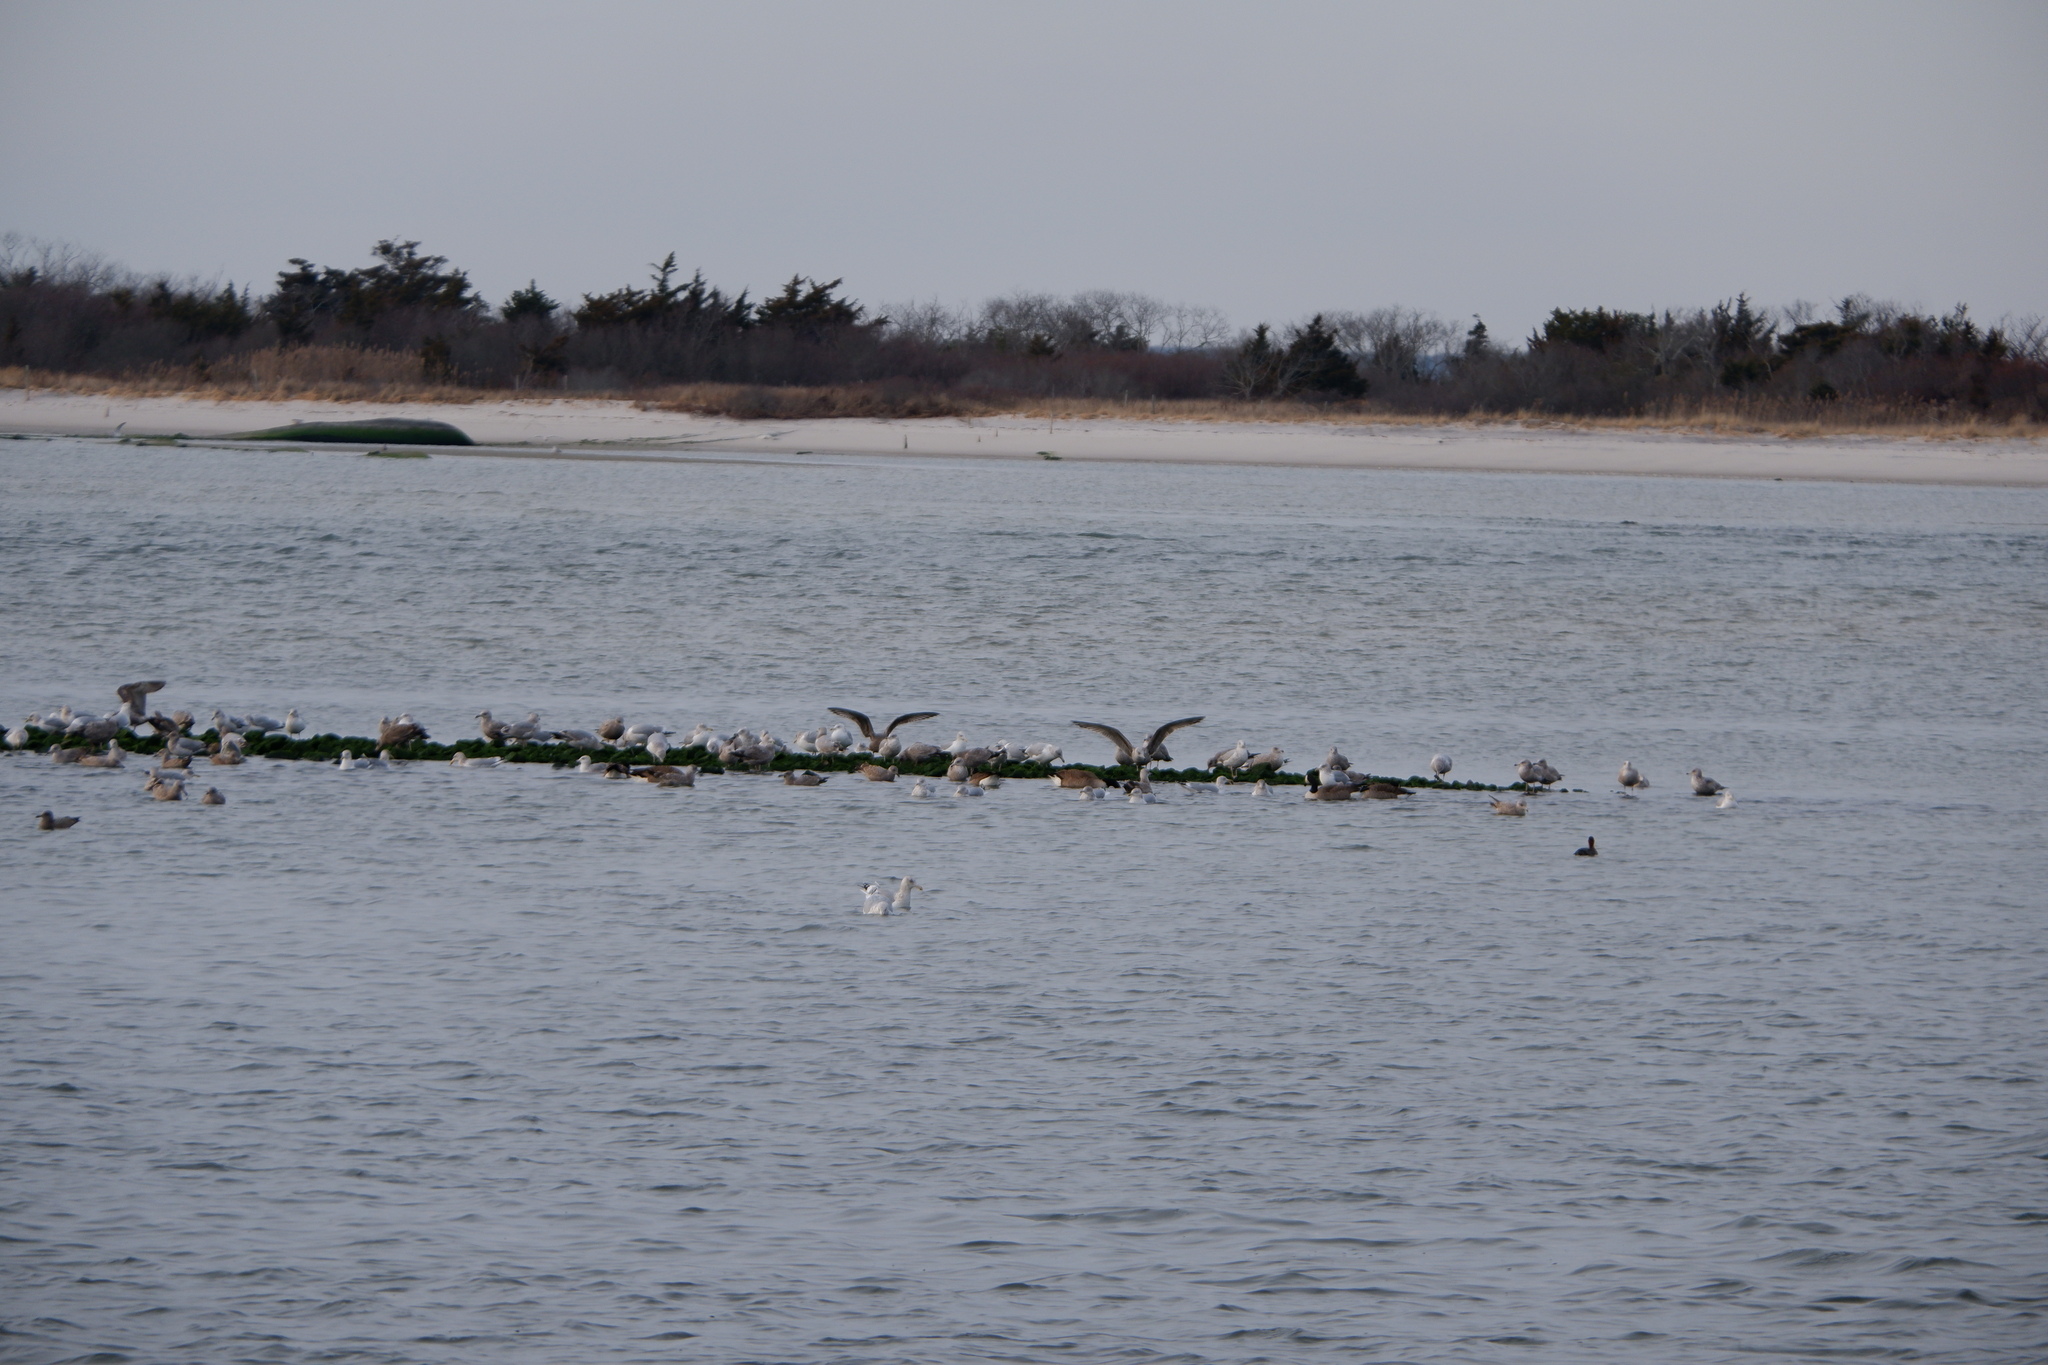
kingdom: Animalia
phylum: Chordata
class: Aves
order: Anseriformes
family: Anatidae
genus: Branta
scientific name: Branta canadensis
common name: Canada goose
